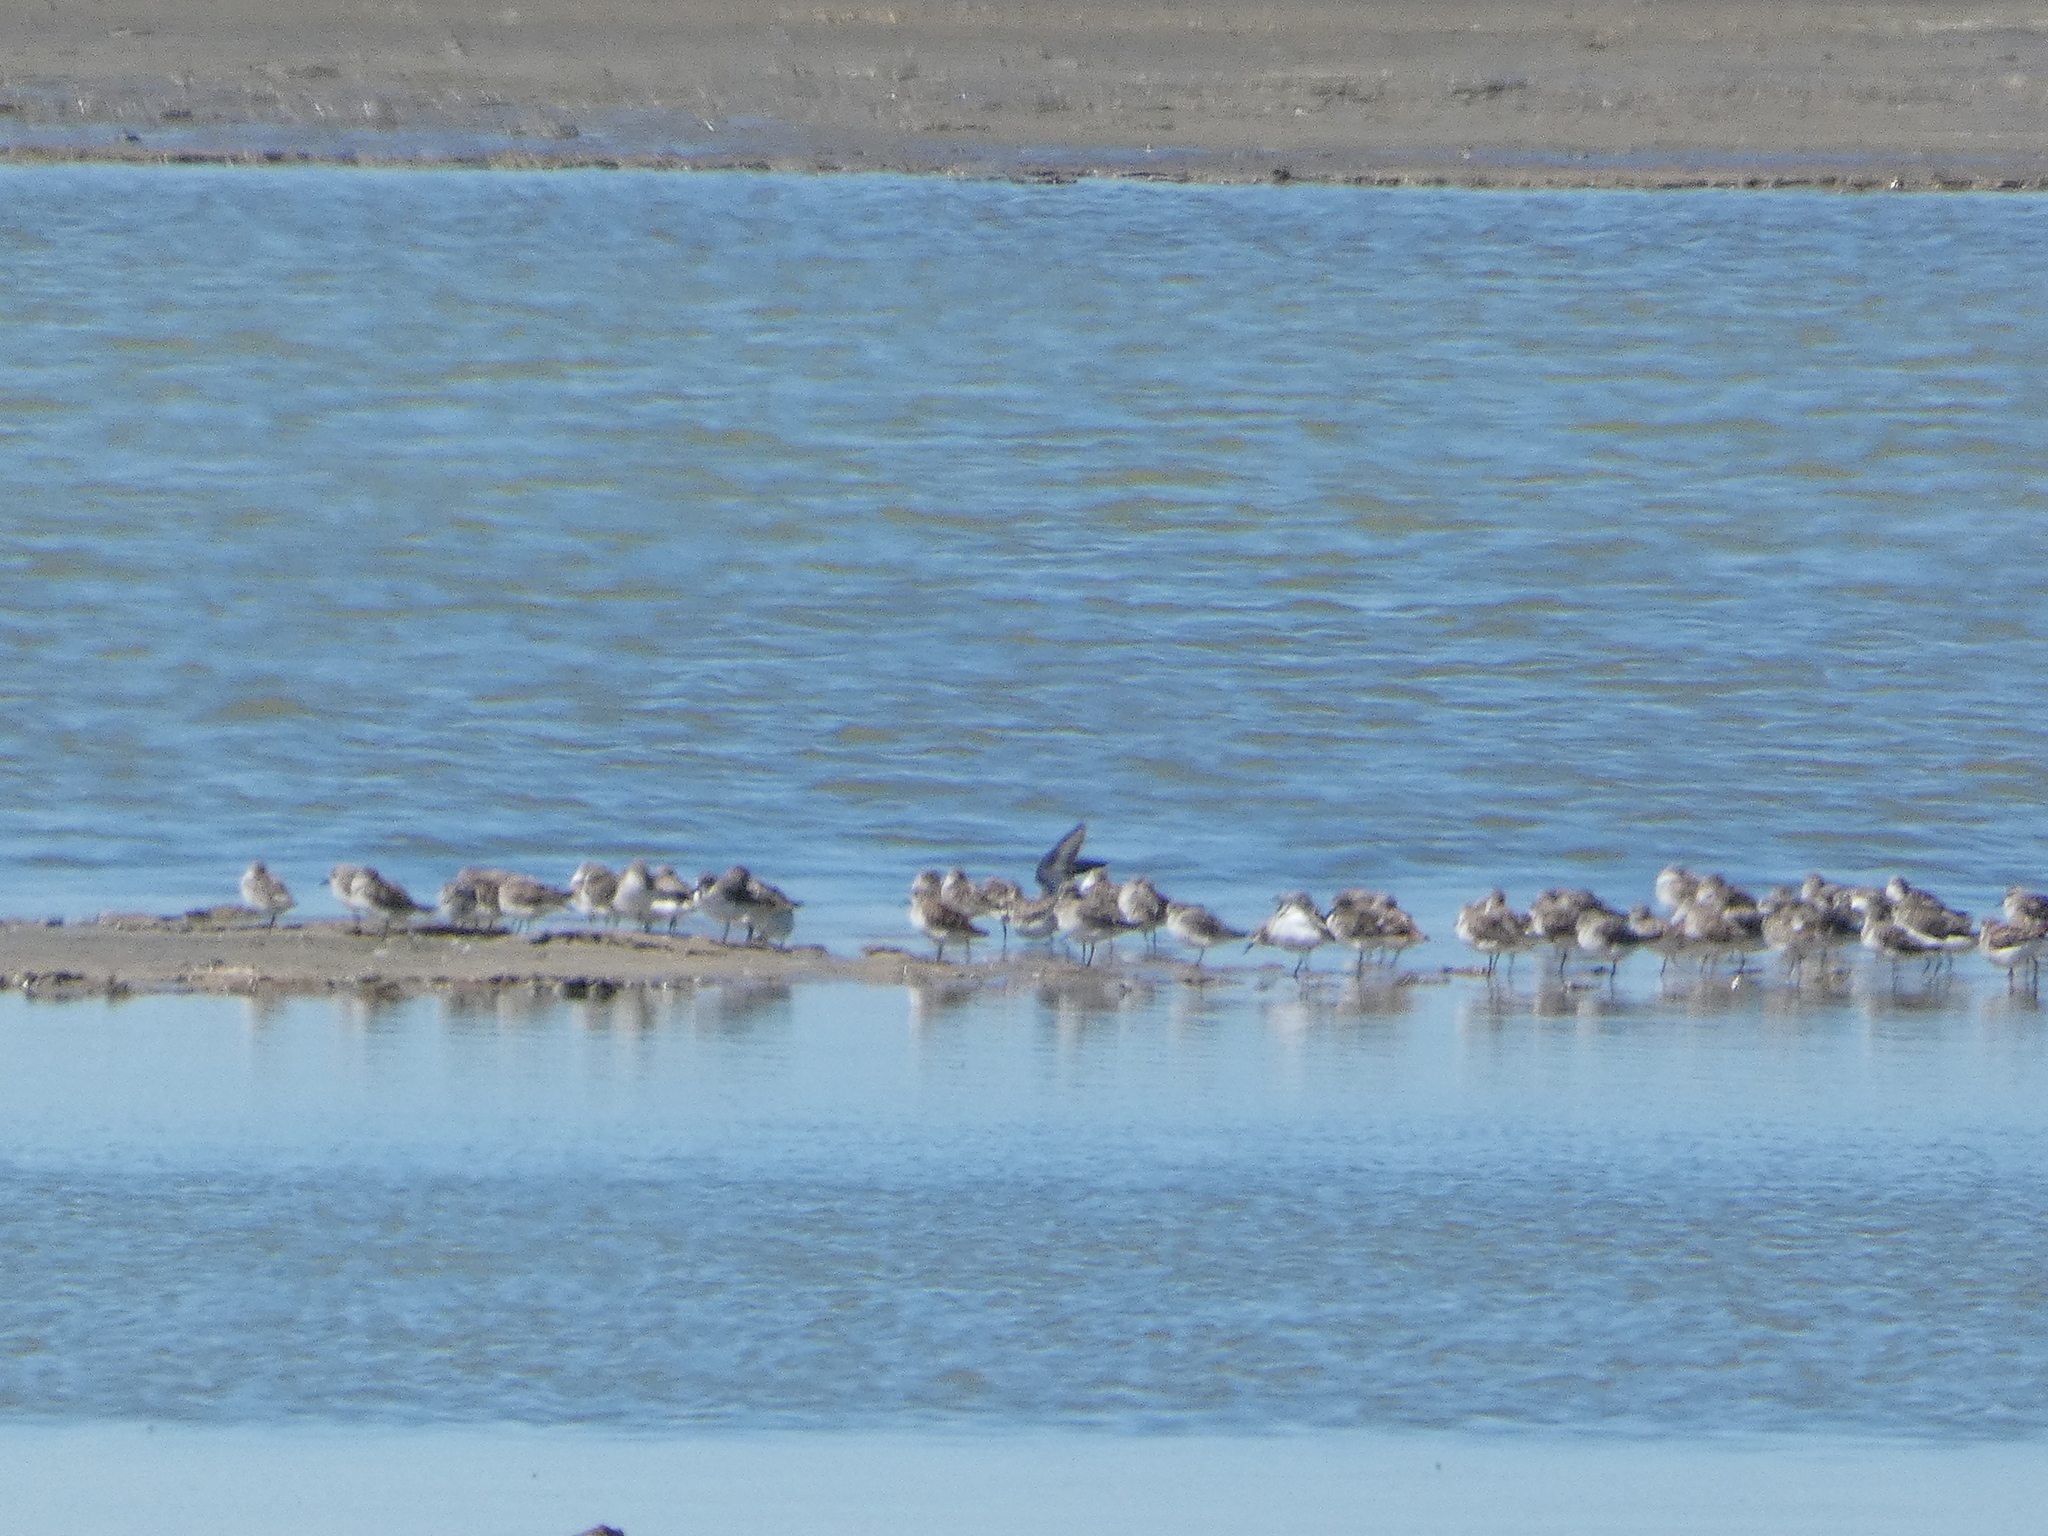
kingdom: Animalia
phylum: Chordata
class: Aves
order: Charadriiformes
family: Scolopacidae
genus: Calidris
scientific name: Calidris minuta
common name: Little stint
